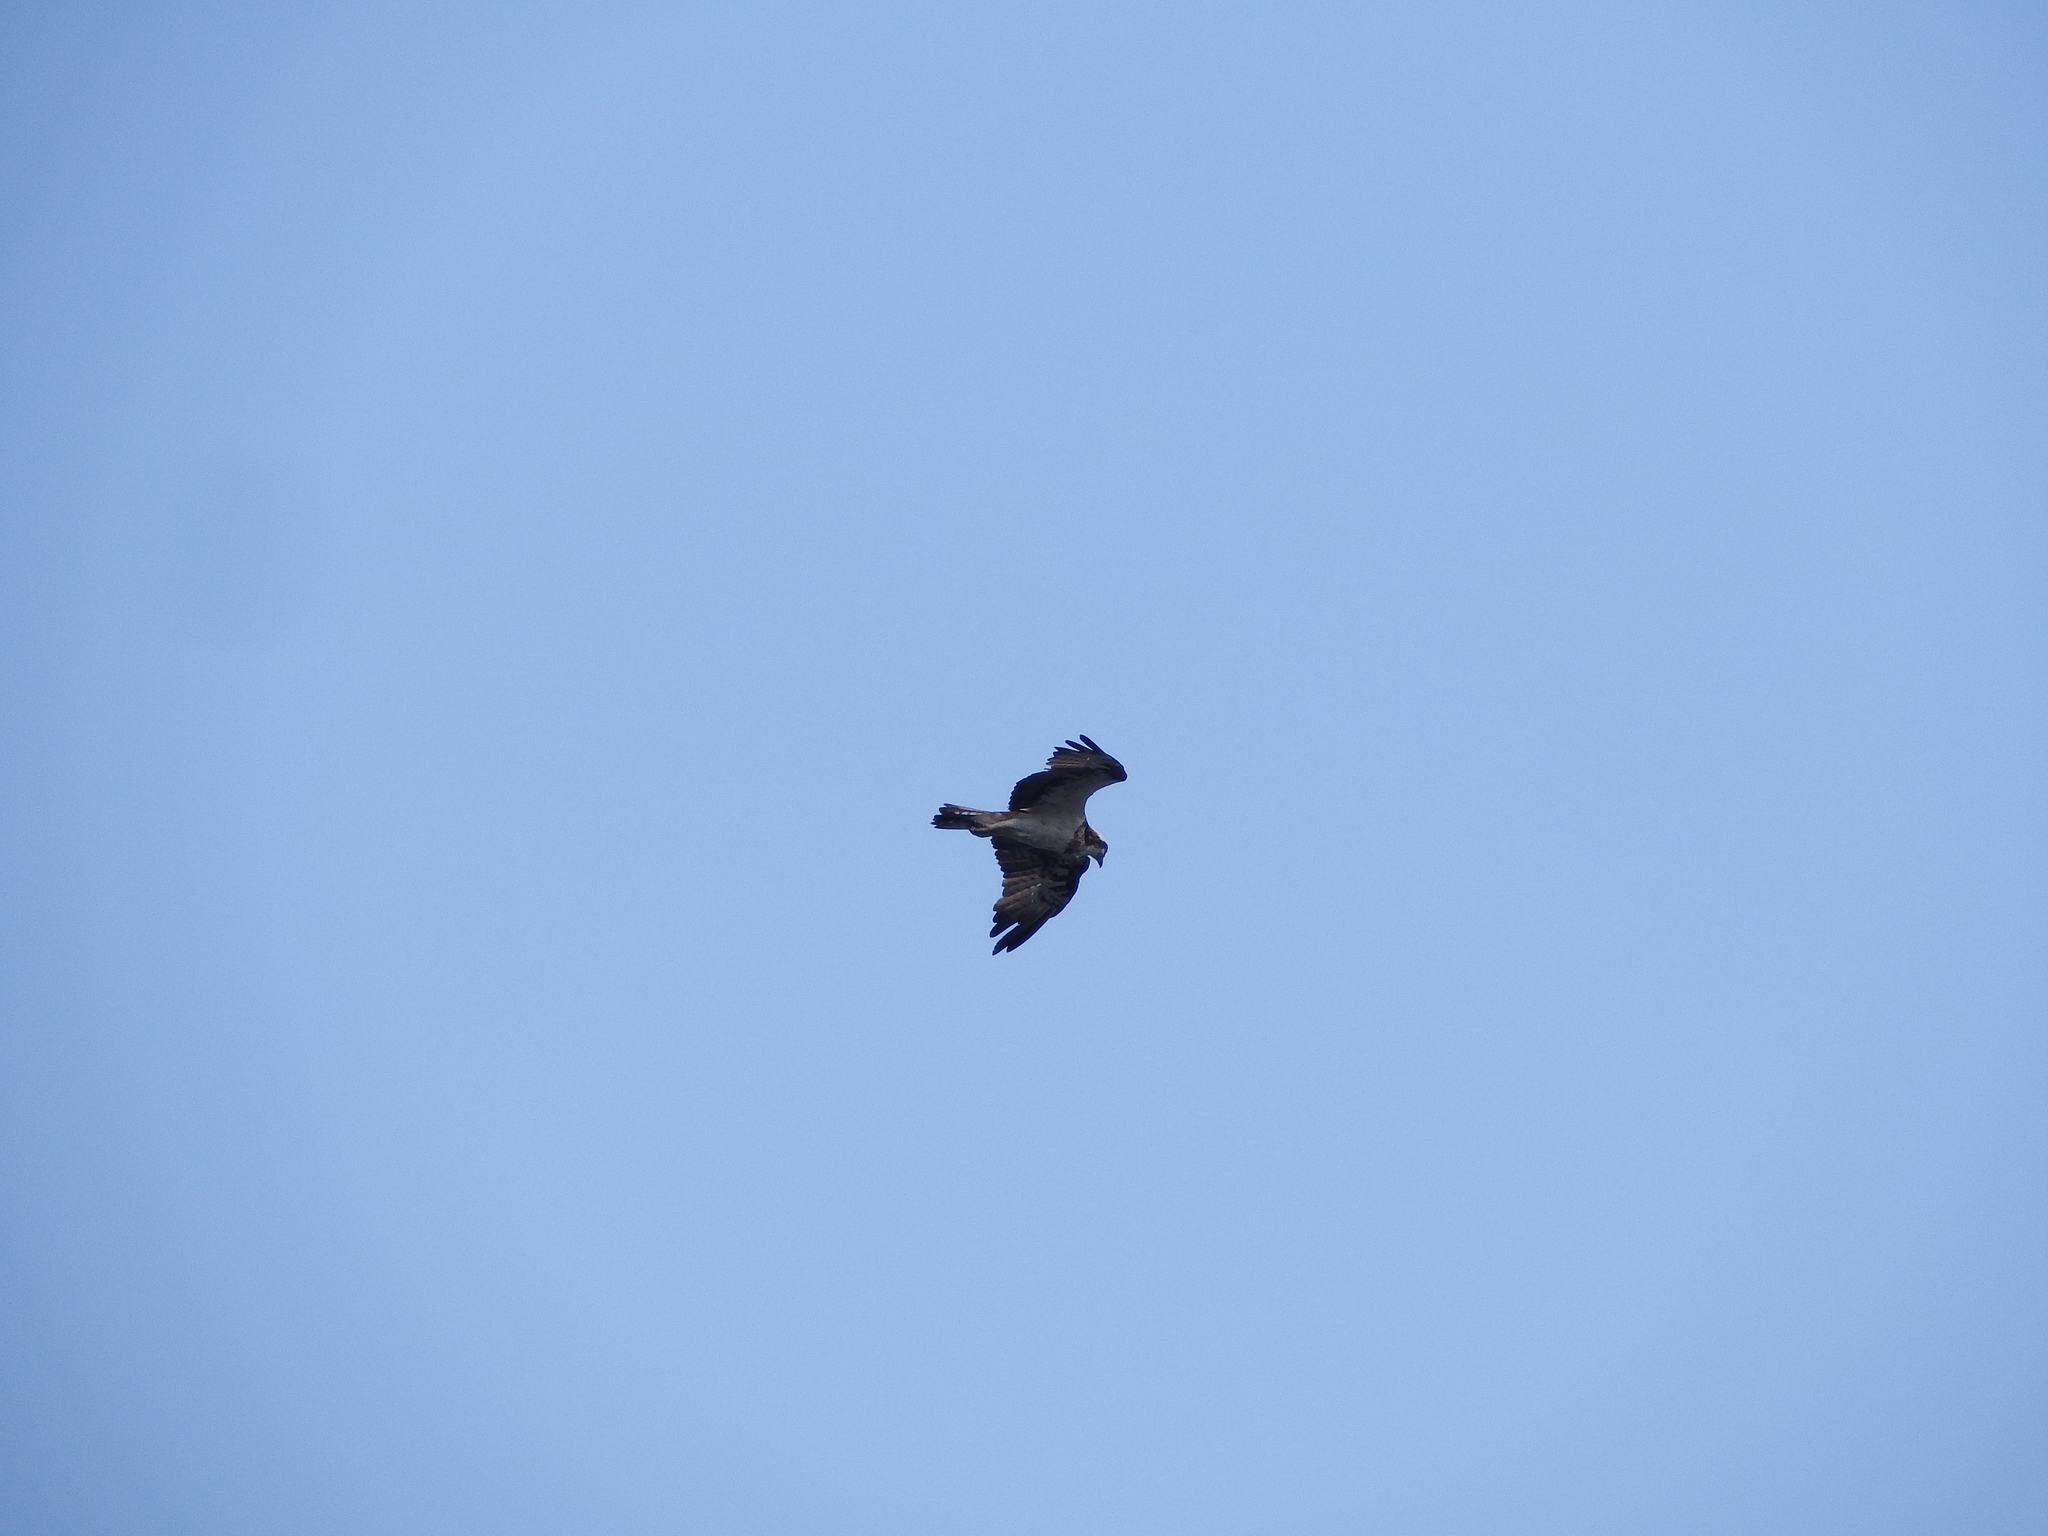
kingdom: Animalia
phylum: Chordata
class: Aves
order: Accipitriformes
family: Pandionidae
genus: Pandion
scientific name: Pandion haliaetus
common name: Osprey
